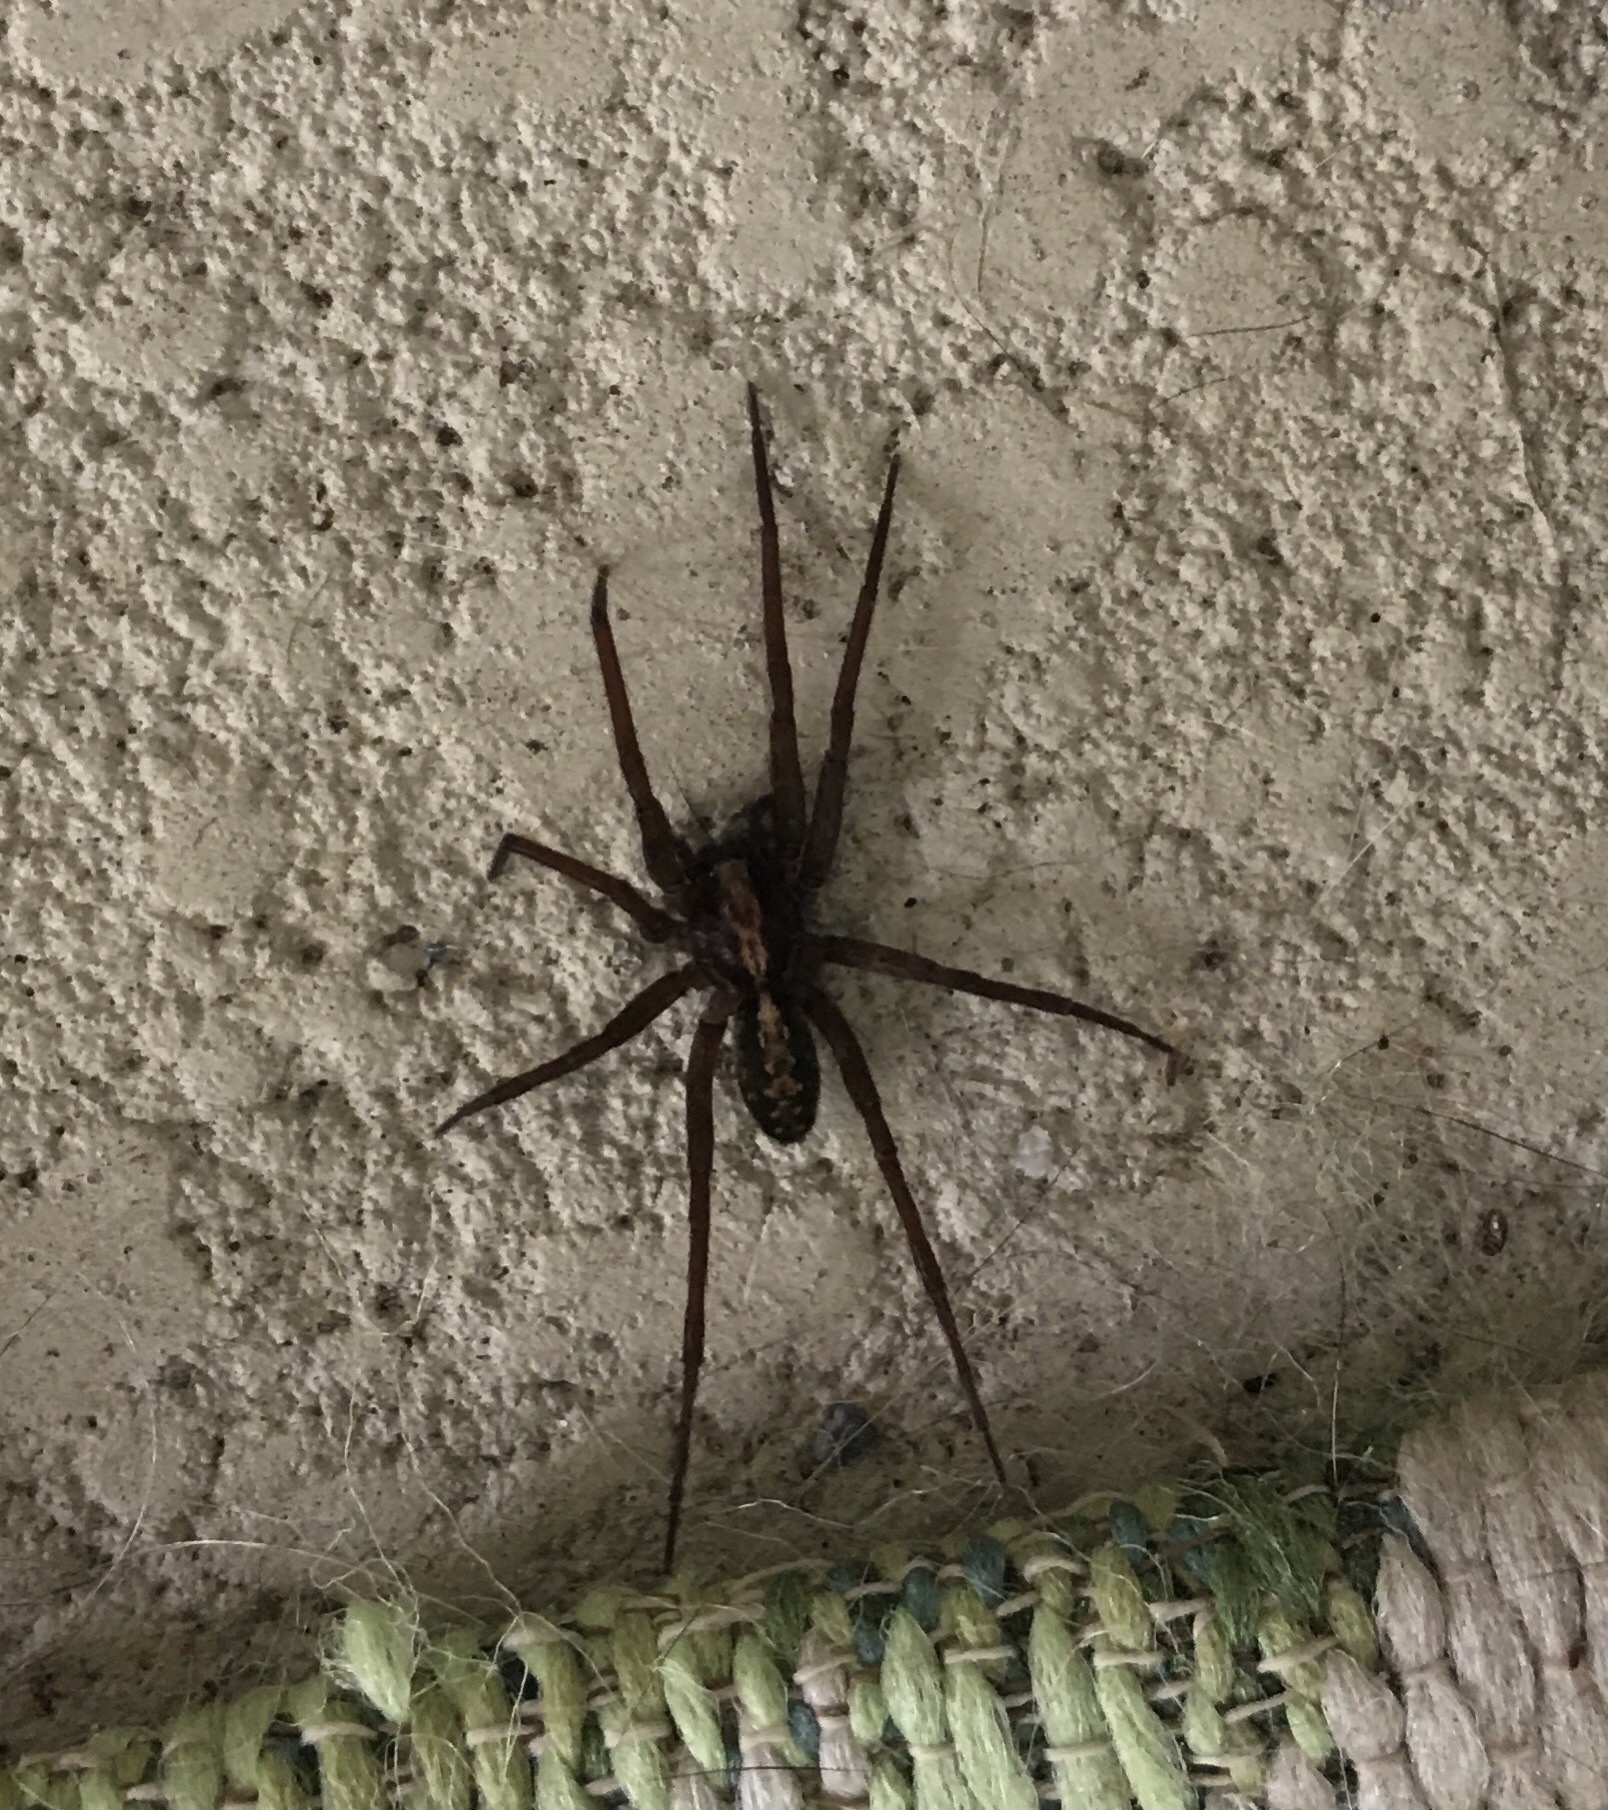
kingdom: Animalia
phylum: Arthropoda
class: Arachnida
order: Araneae
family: Ctenidae
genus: Ctenus
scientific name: Ctenus captiosus
